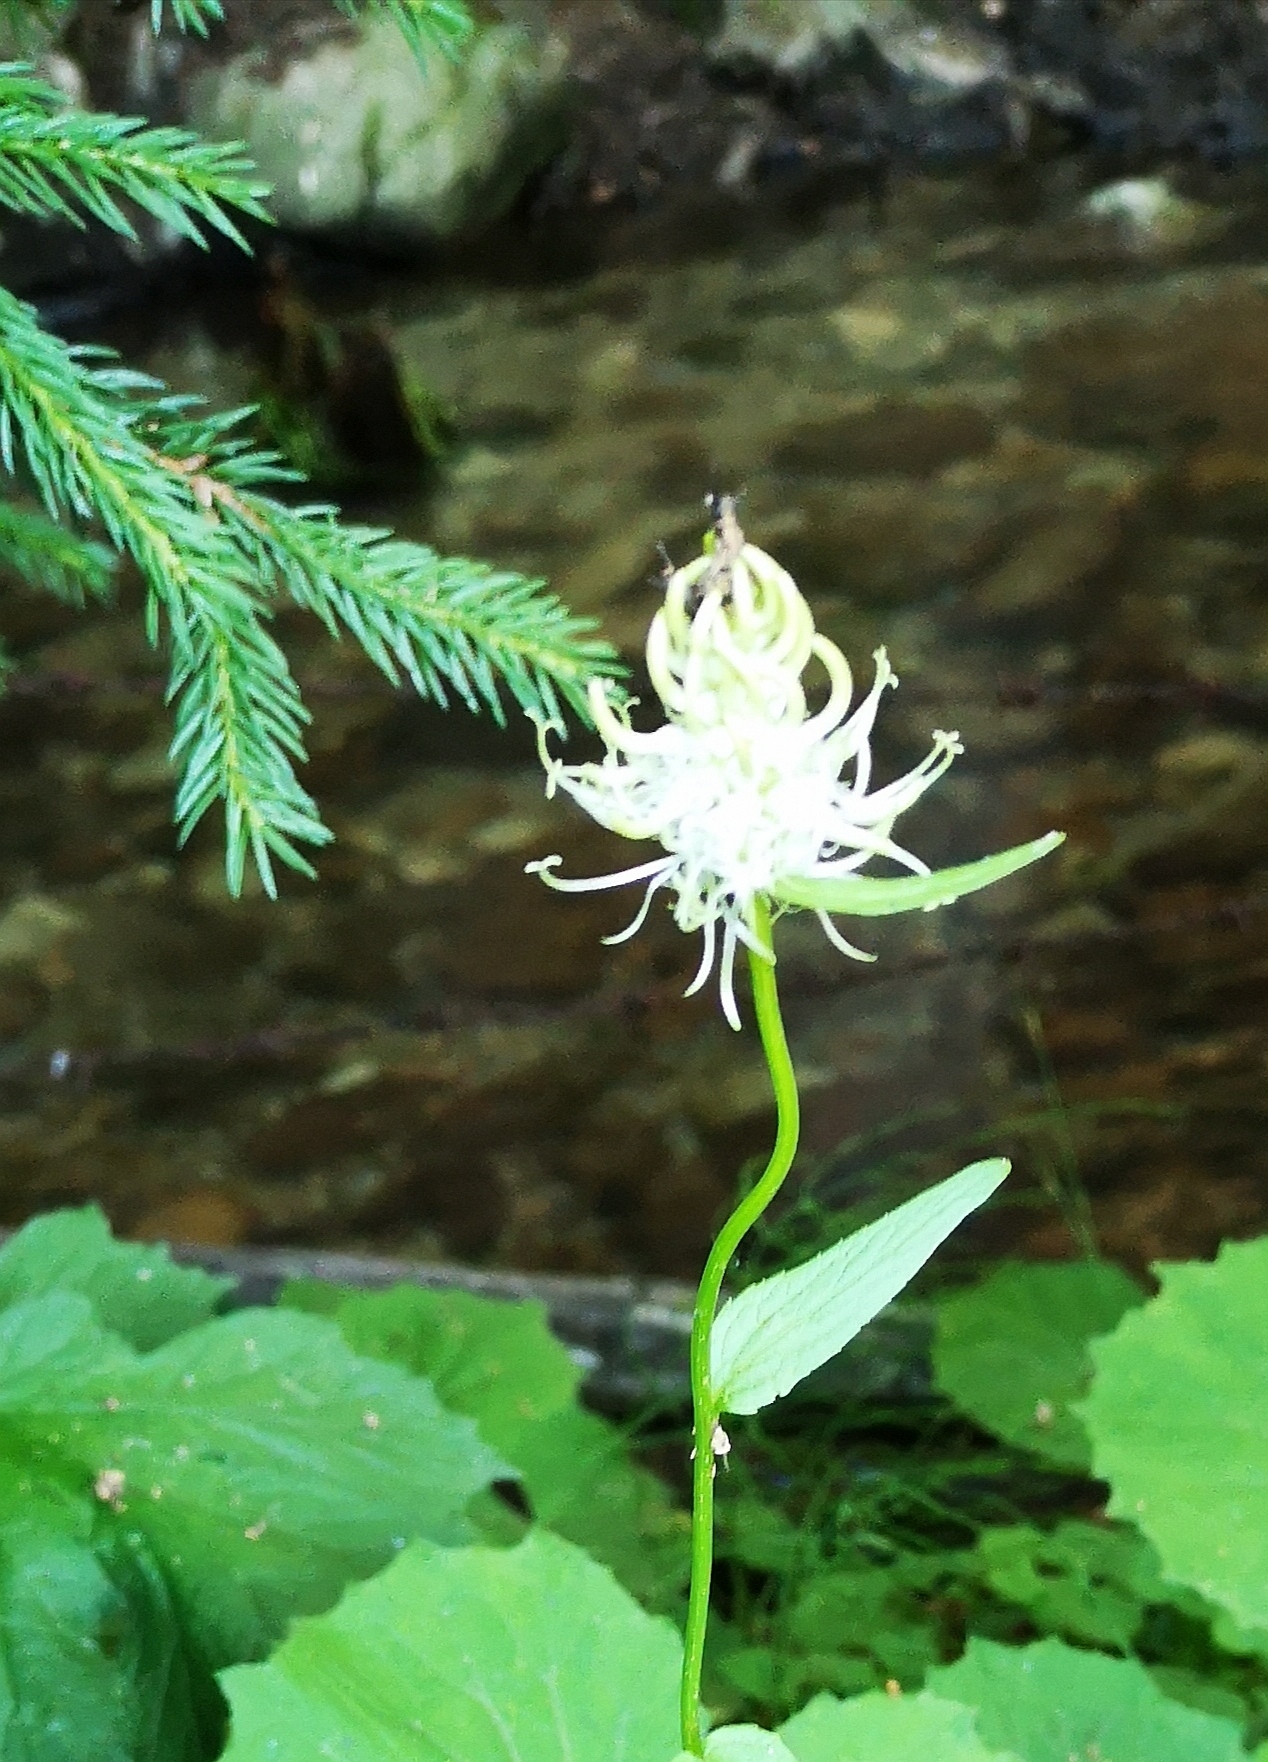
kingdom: Plantae
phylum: Tracheophyta
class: Magnoliopsida
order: Asterales
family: Campanulaceae
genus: Phyteuma
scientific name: Phyteuma spicatum
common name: Spiked rampion
